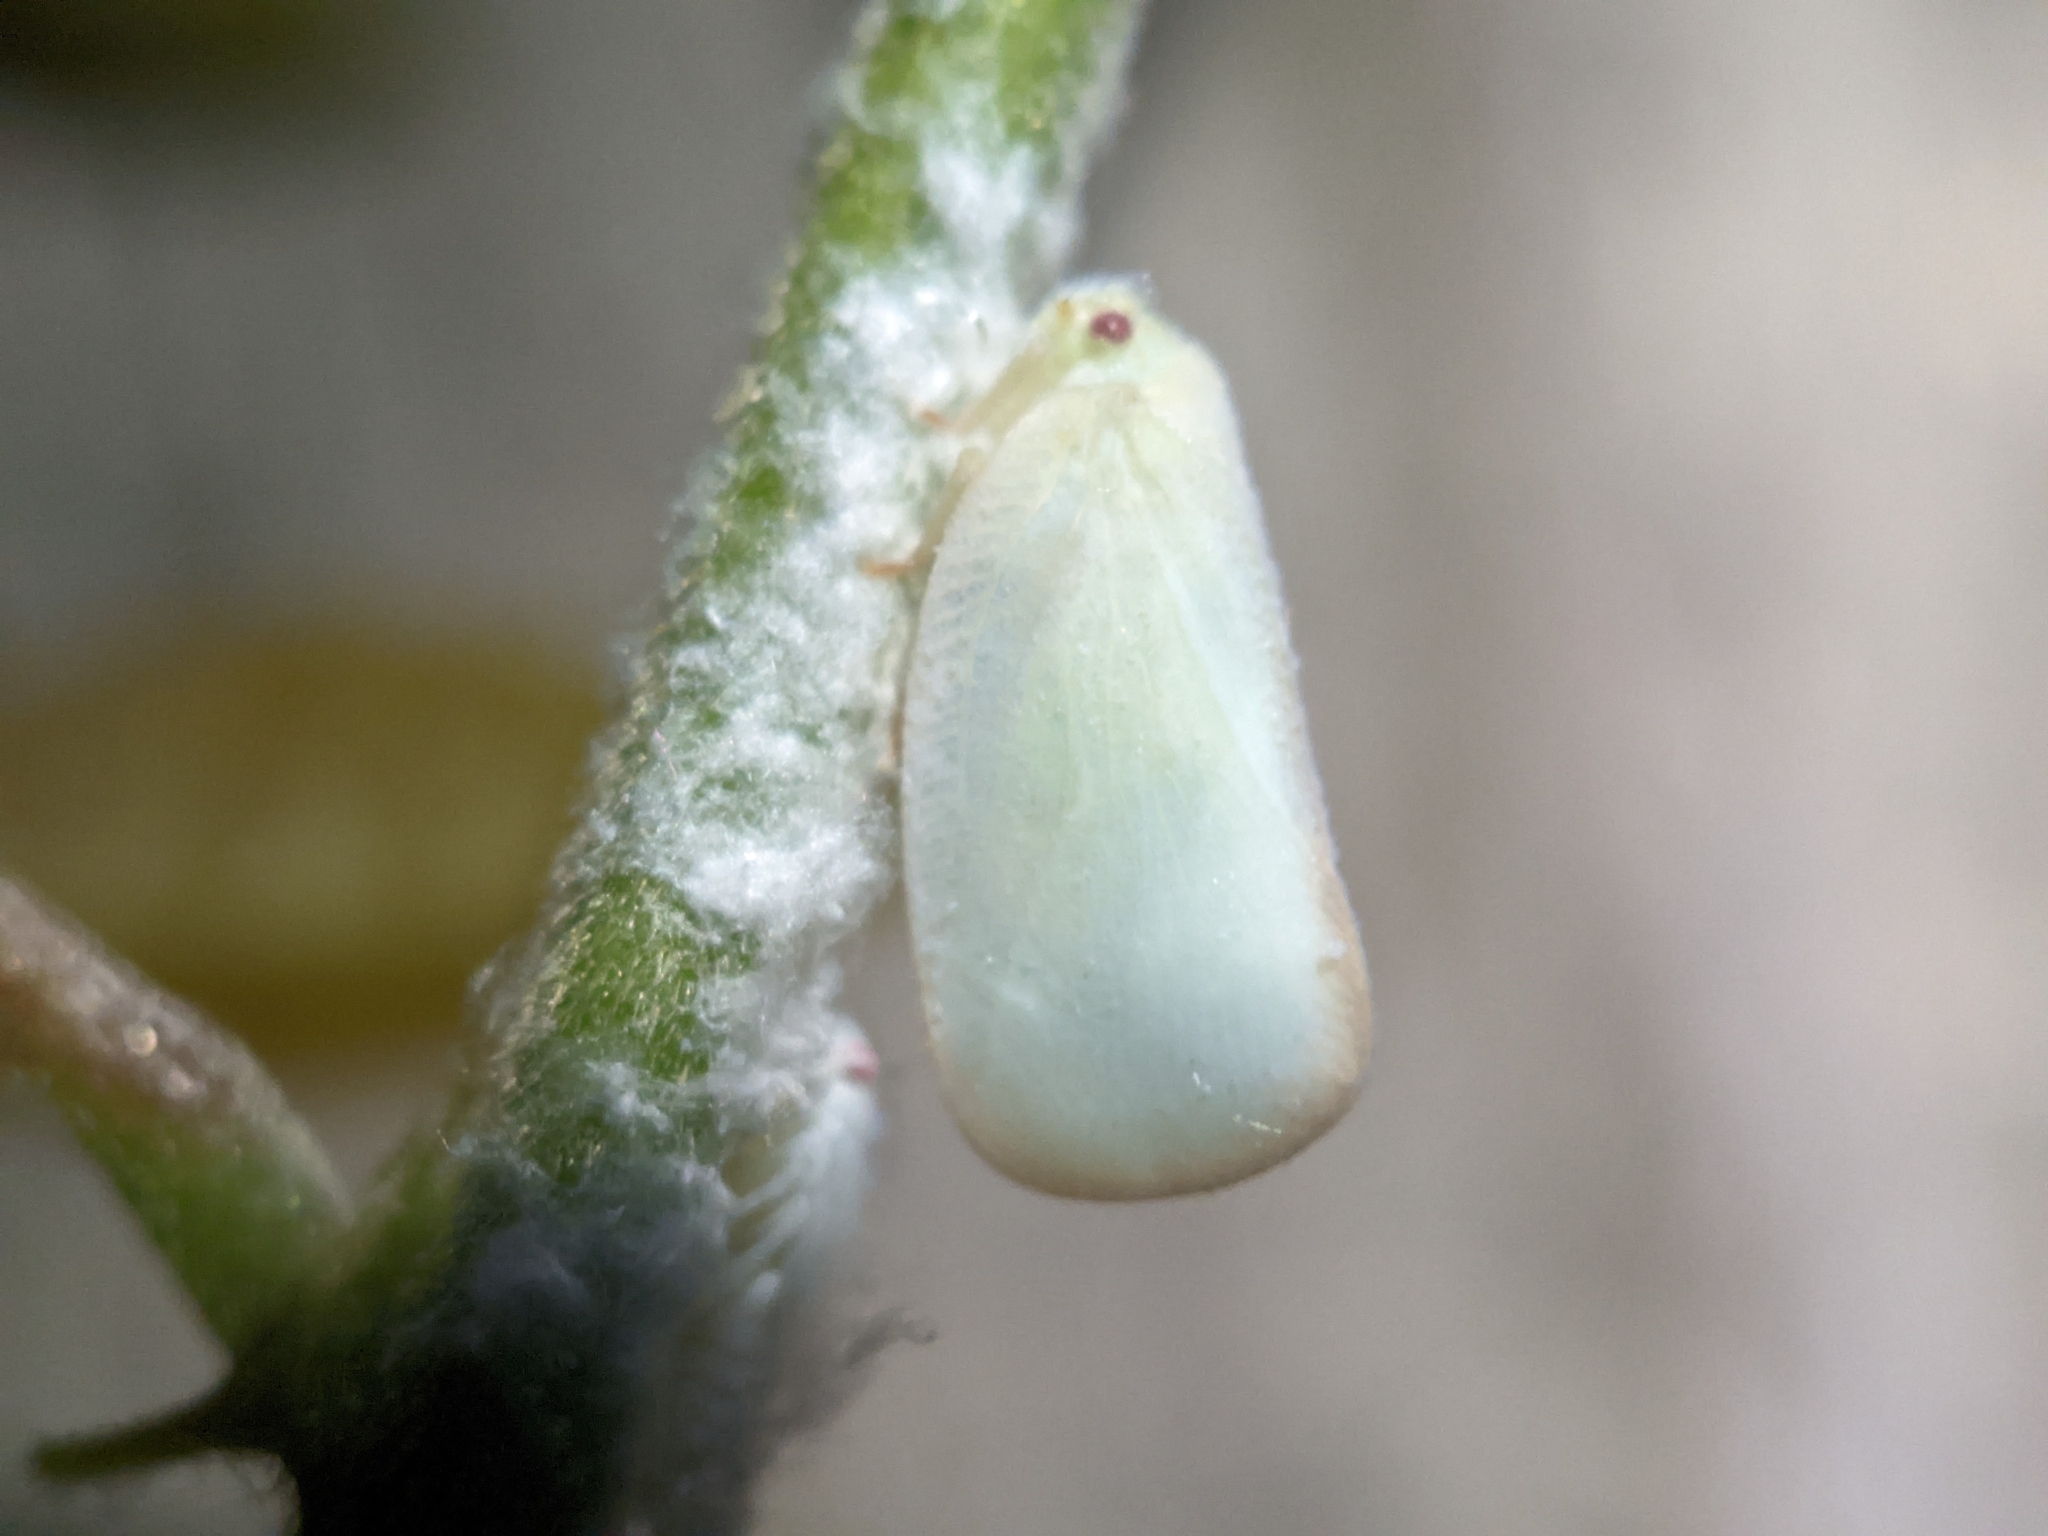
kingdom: Animalia
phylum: Arthropoda
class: Insecta
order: Hemiptera
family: Flatidae
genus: Ormenoides
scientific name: Ormenoides venusta
